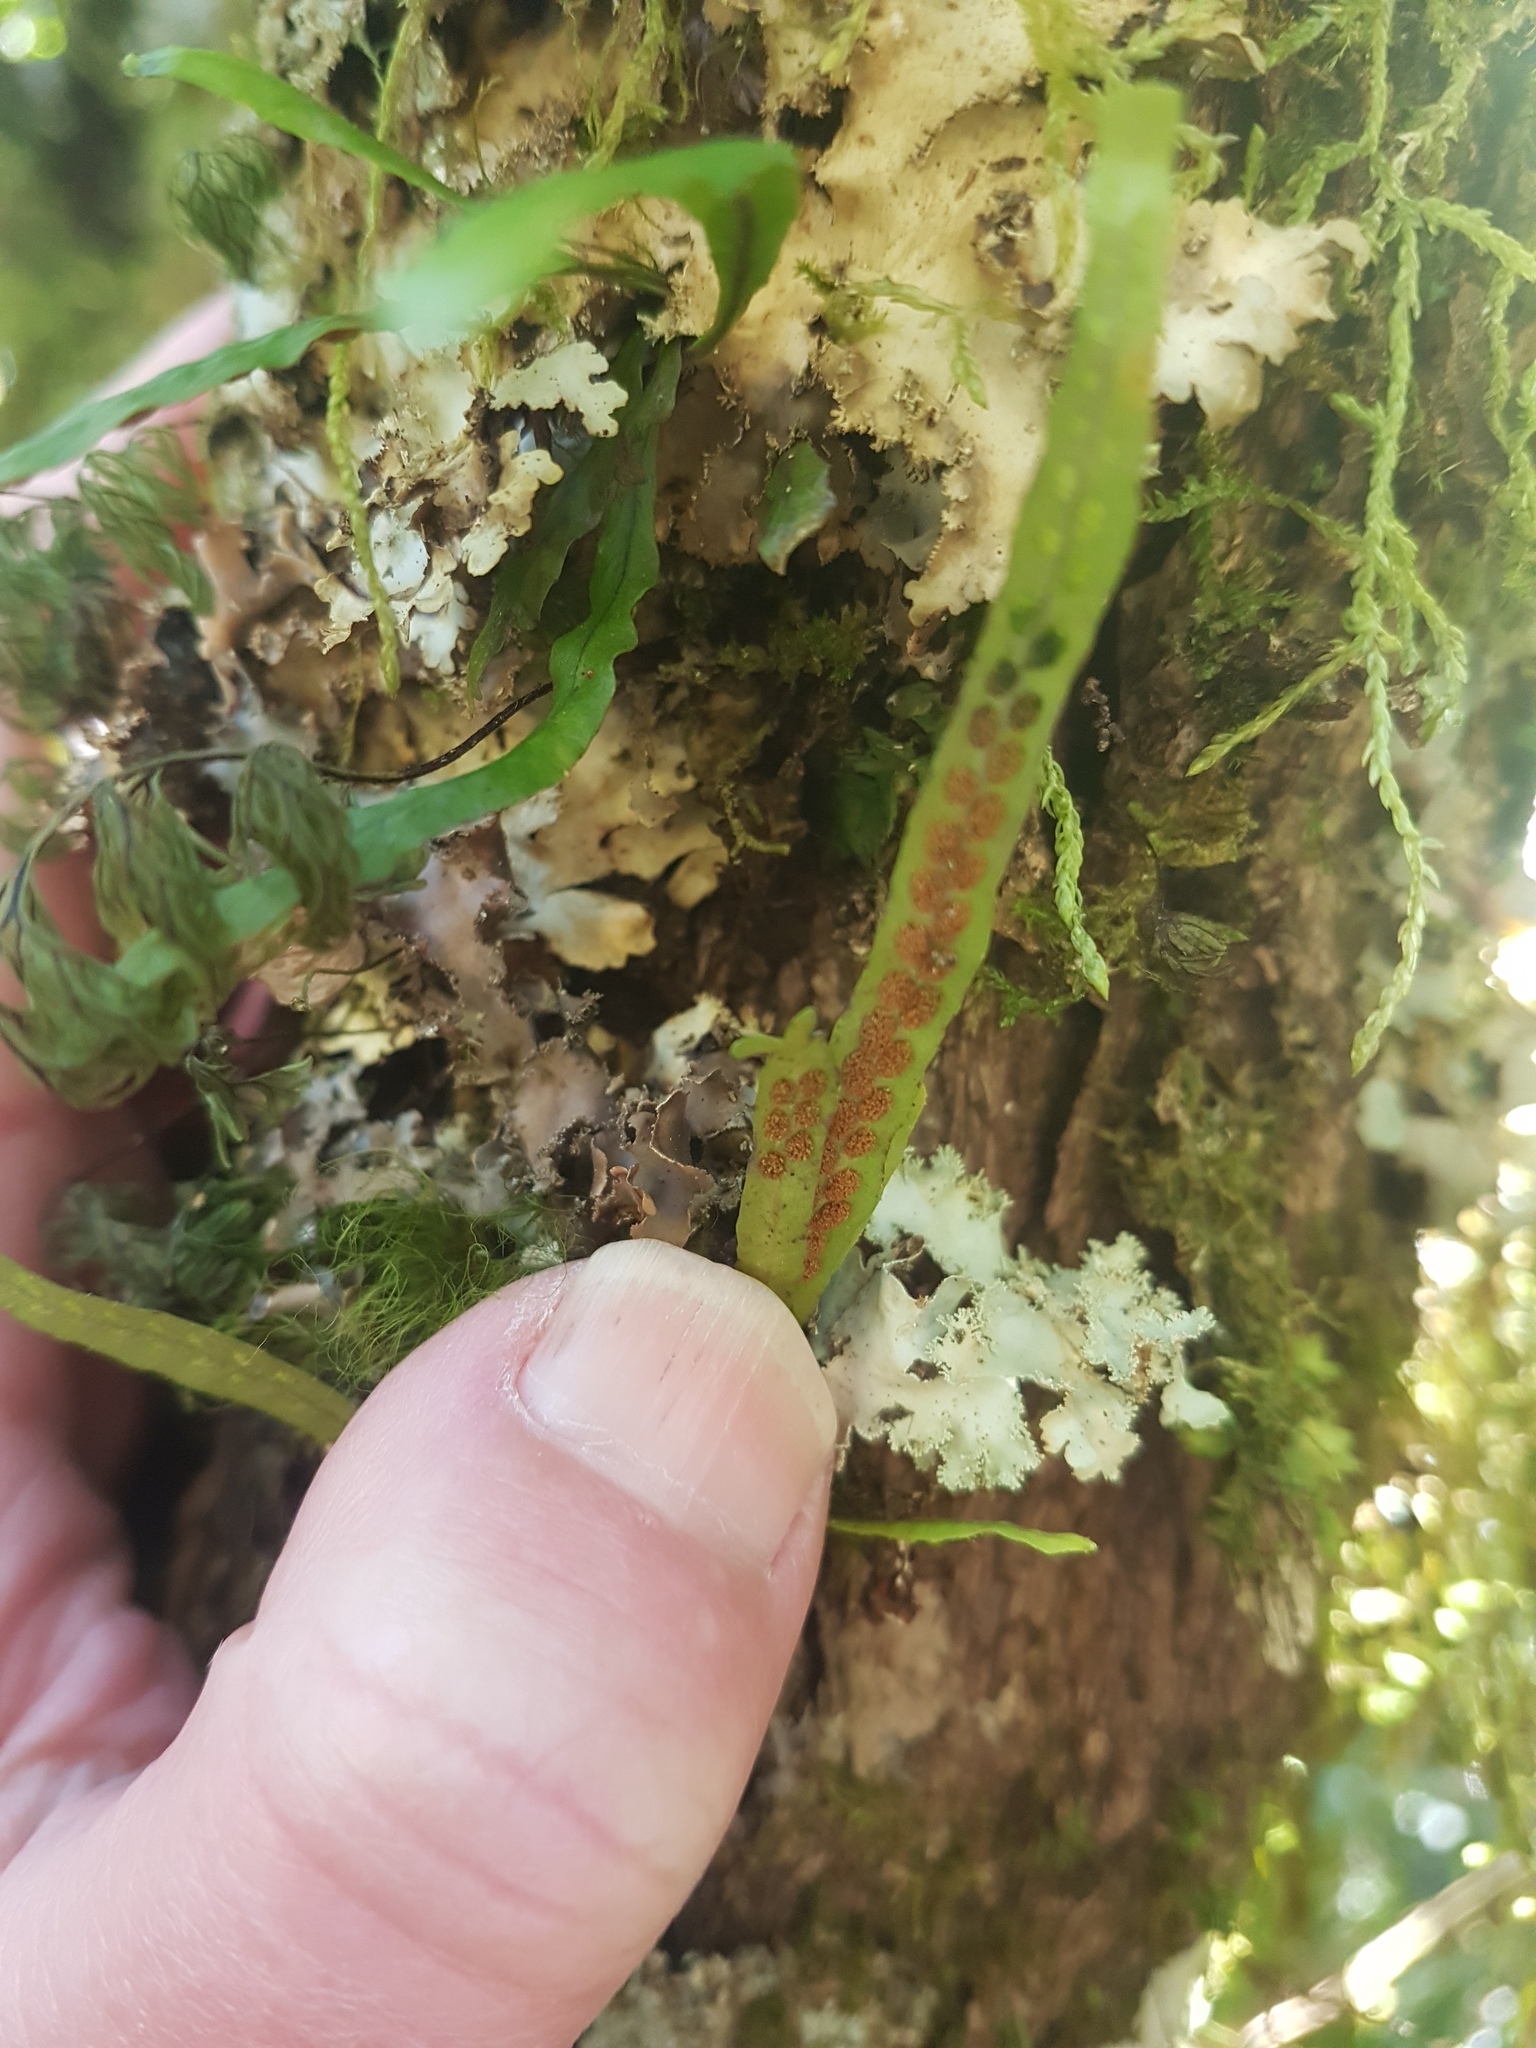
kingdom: Plantae
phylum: Tracheophyta
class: Polypodiopsida
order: Polypodiales
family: Polypodiaceae
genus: Notogrammitis
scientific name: Notogrammitis angustifolia
